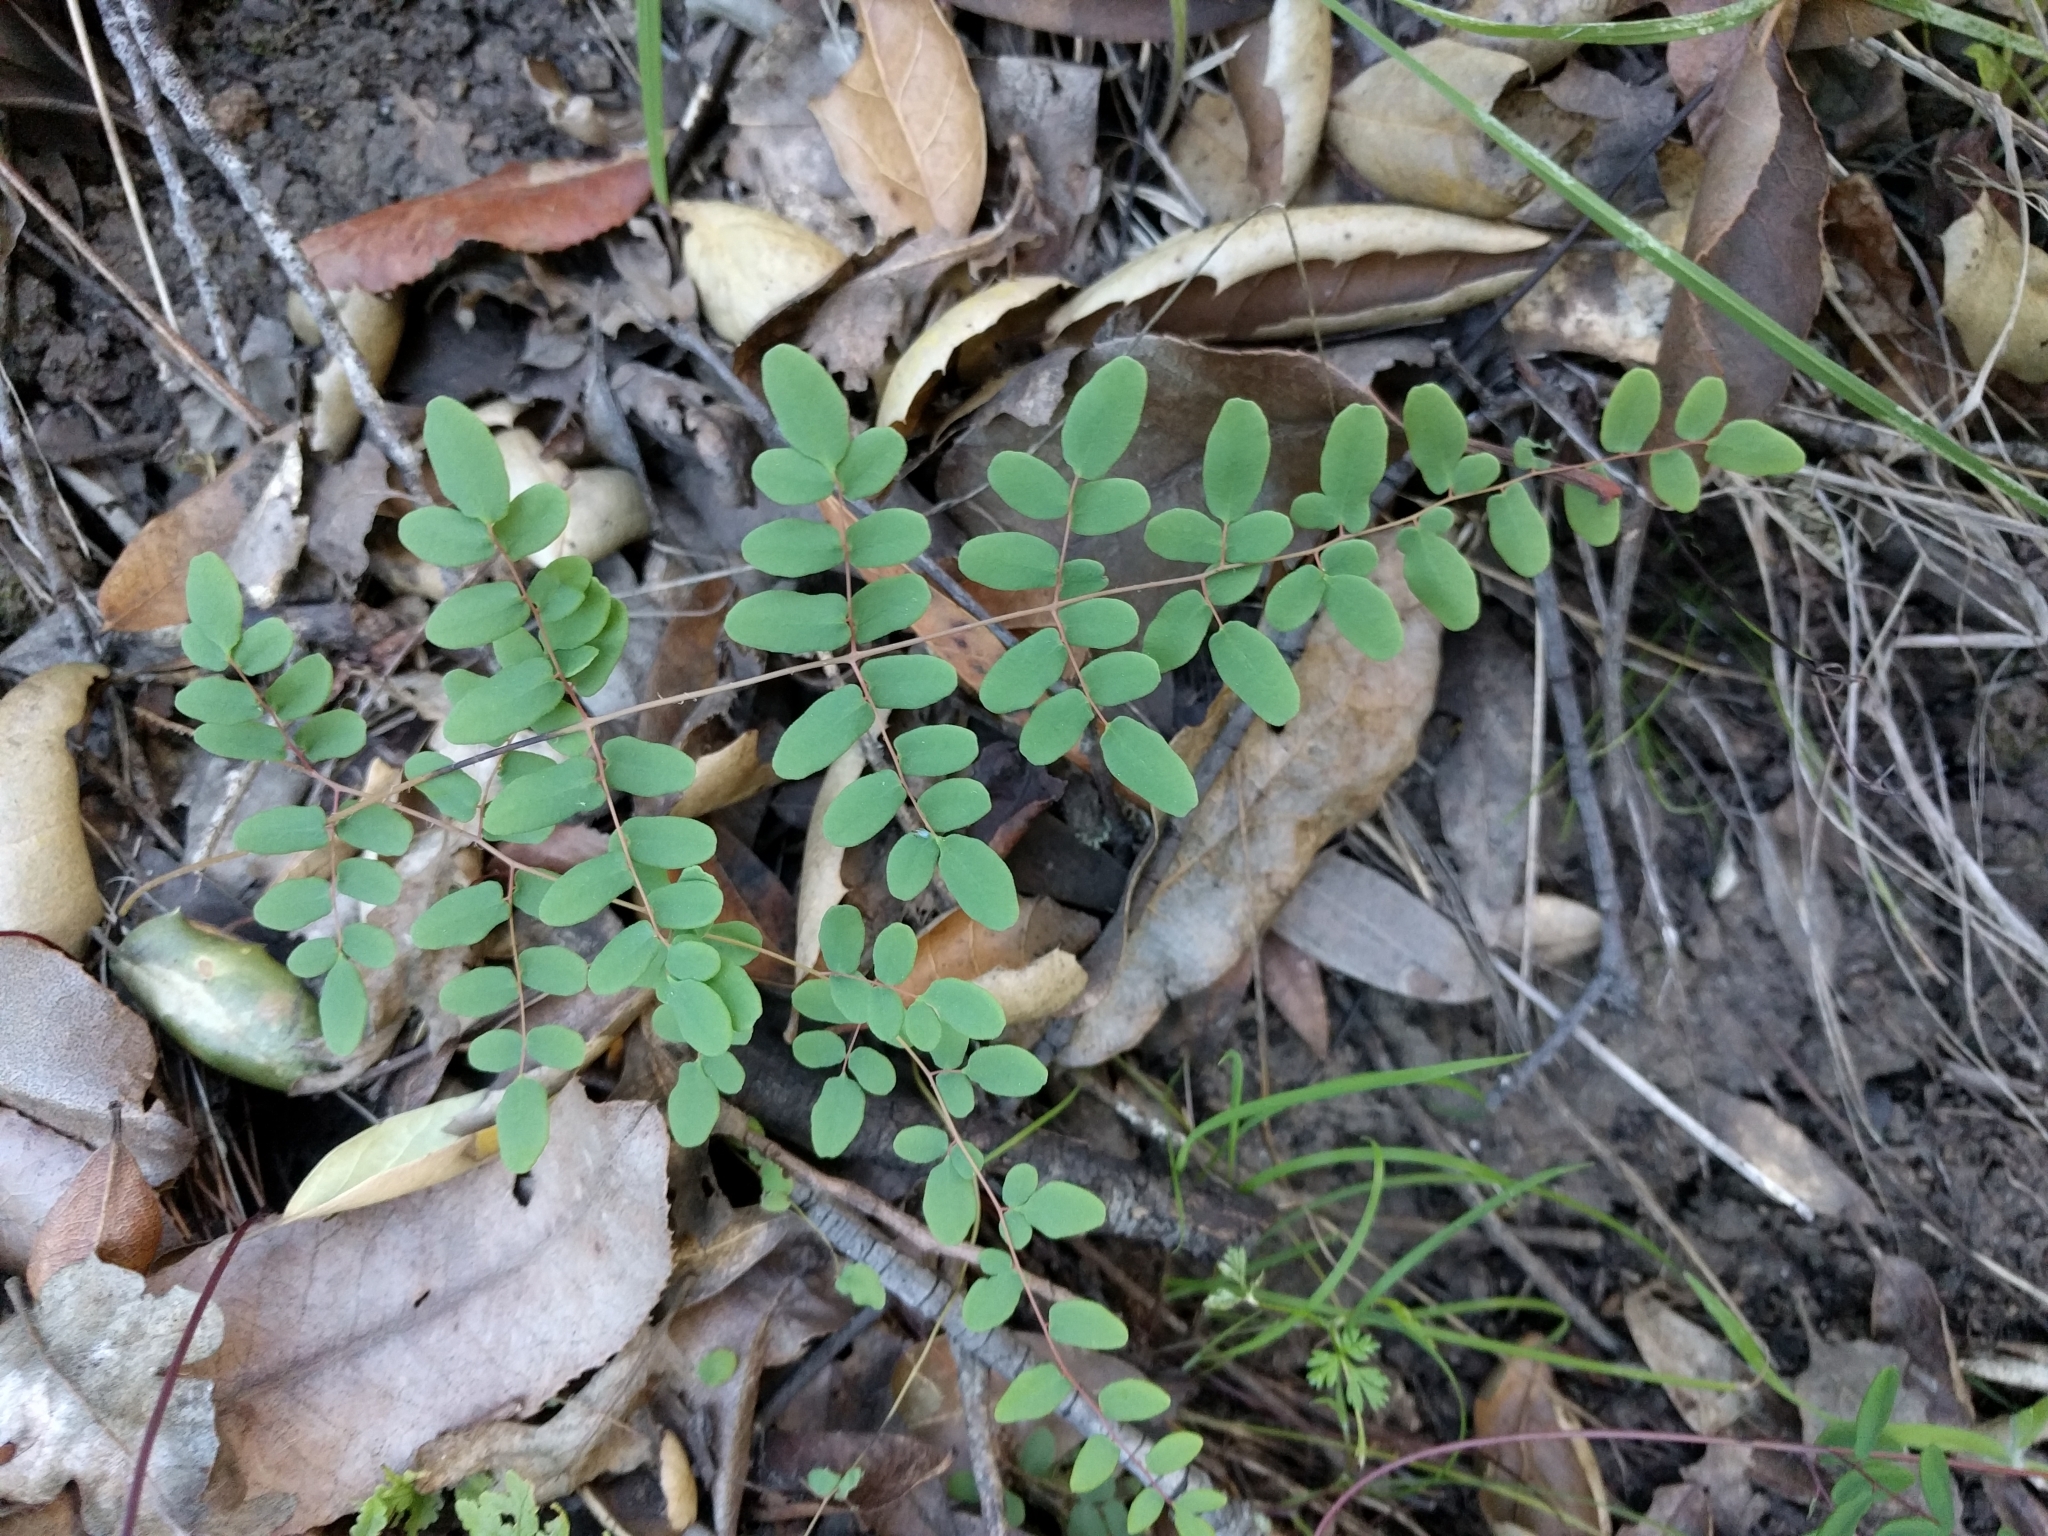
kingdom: Plantae
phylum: Tracheophyta
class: Polypodiopsida
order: Polypodiales
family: Pteridaceae
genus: Pellaea
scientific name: Pellaea andromedifolia
